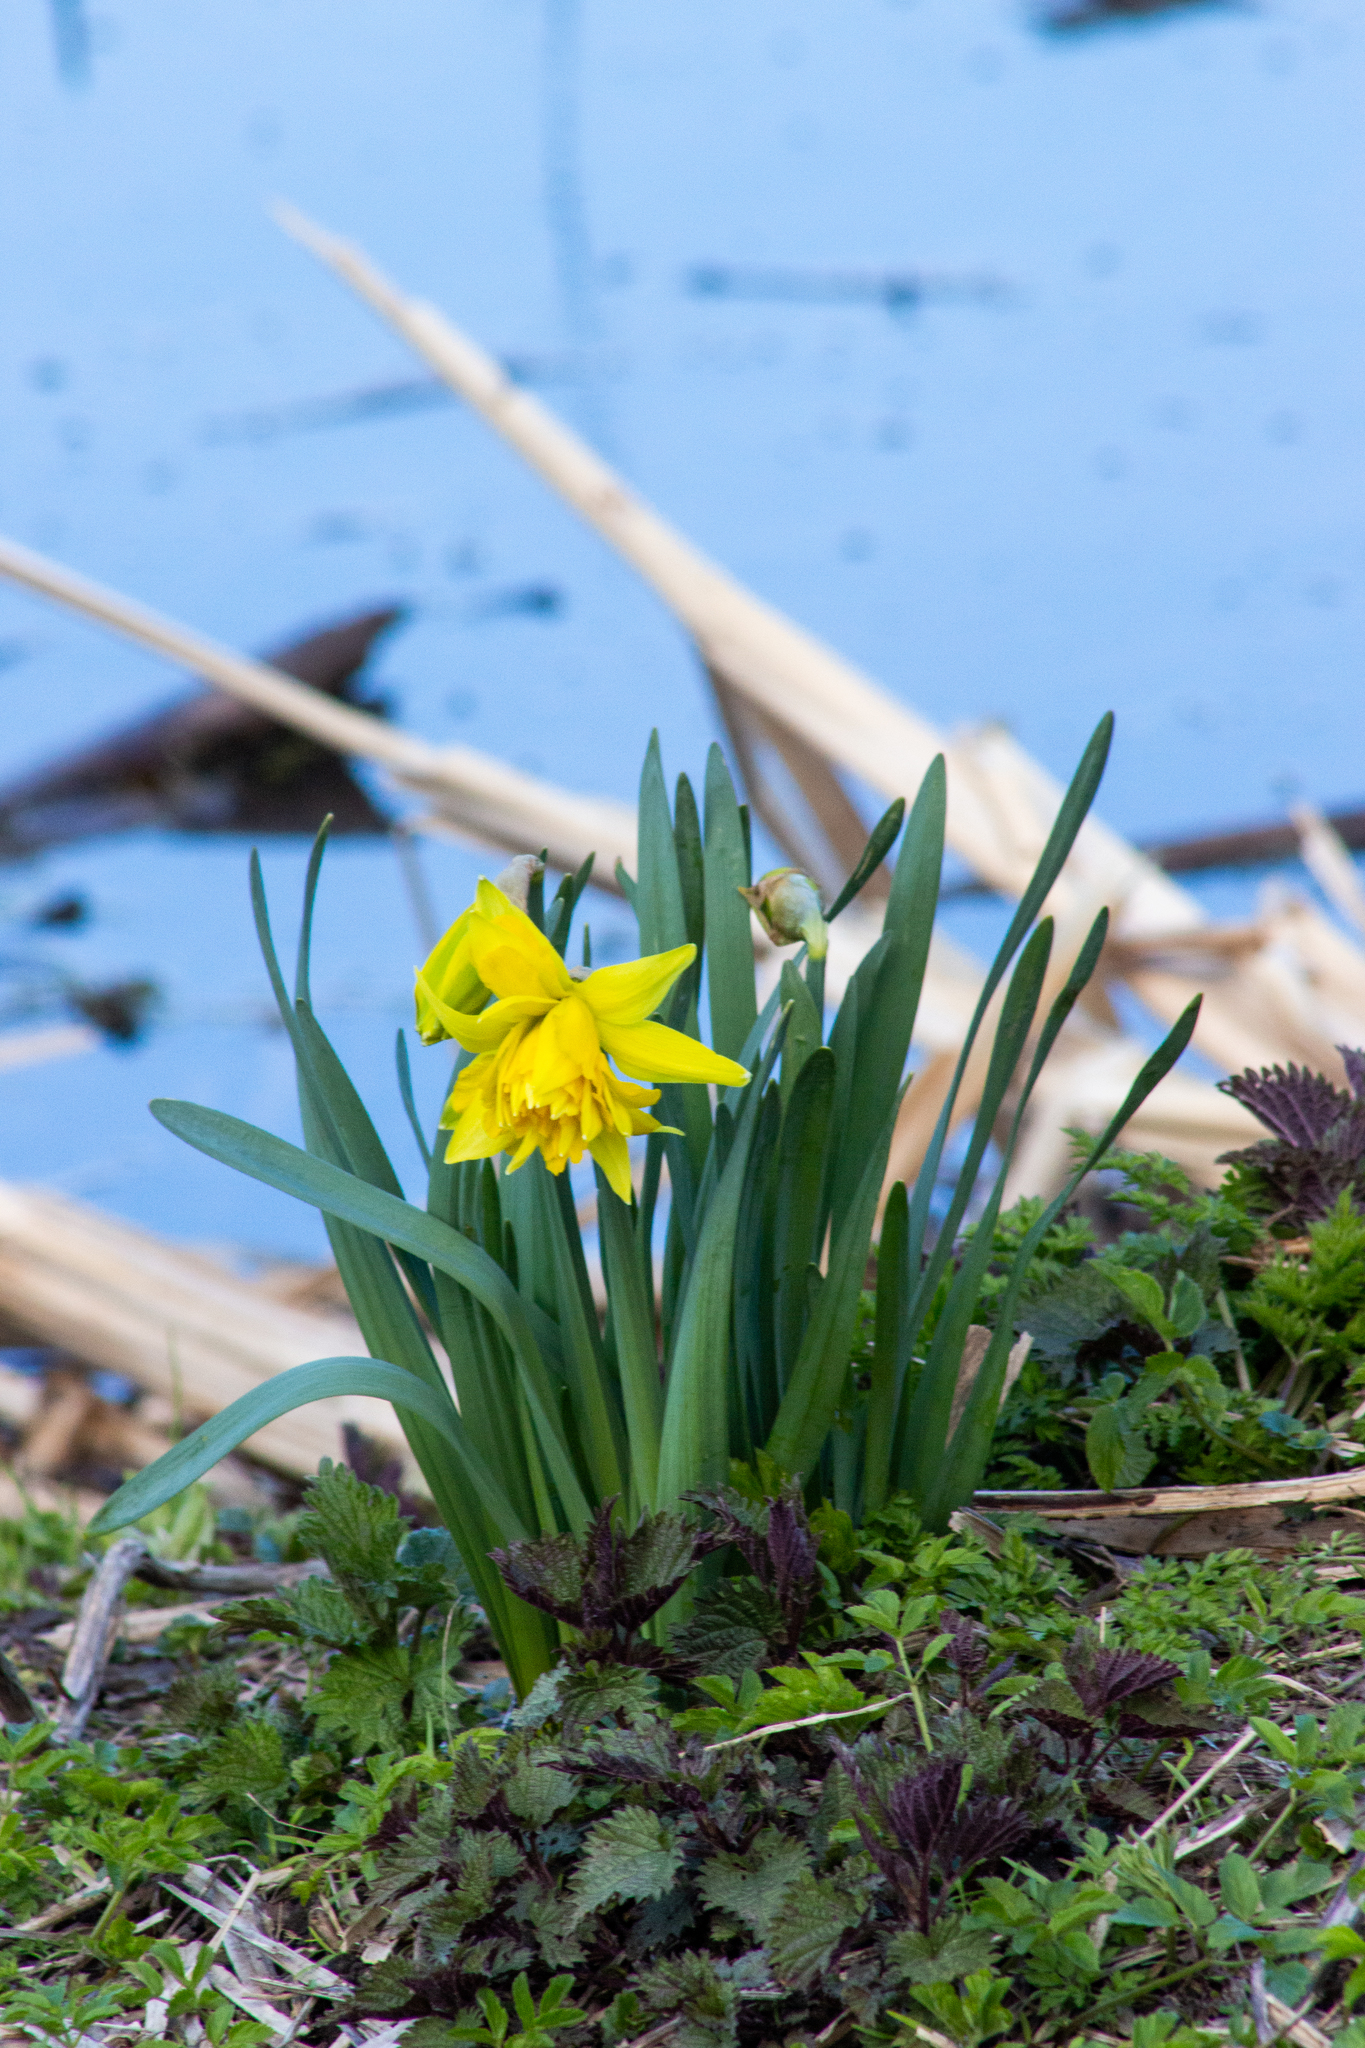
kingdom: Plantae
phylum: Tracheophyta
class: Liliopsida
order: Asparagales
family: Amaryllidaceae
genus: Narcissus
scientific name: Narcissus pseudonarcissus
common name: Daffodil
